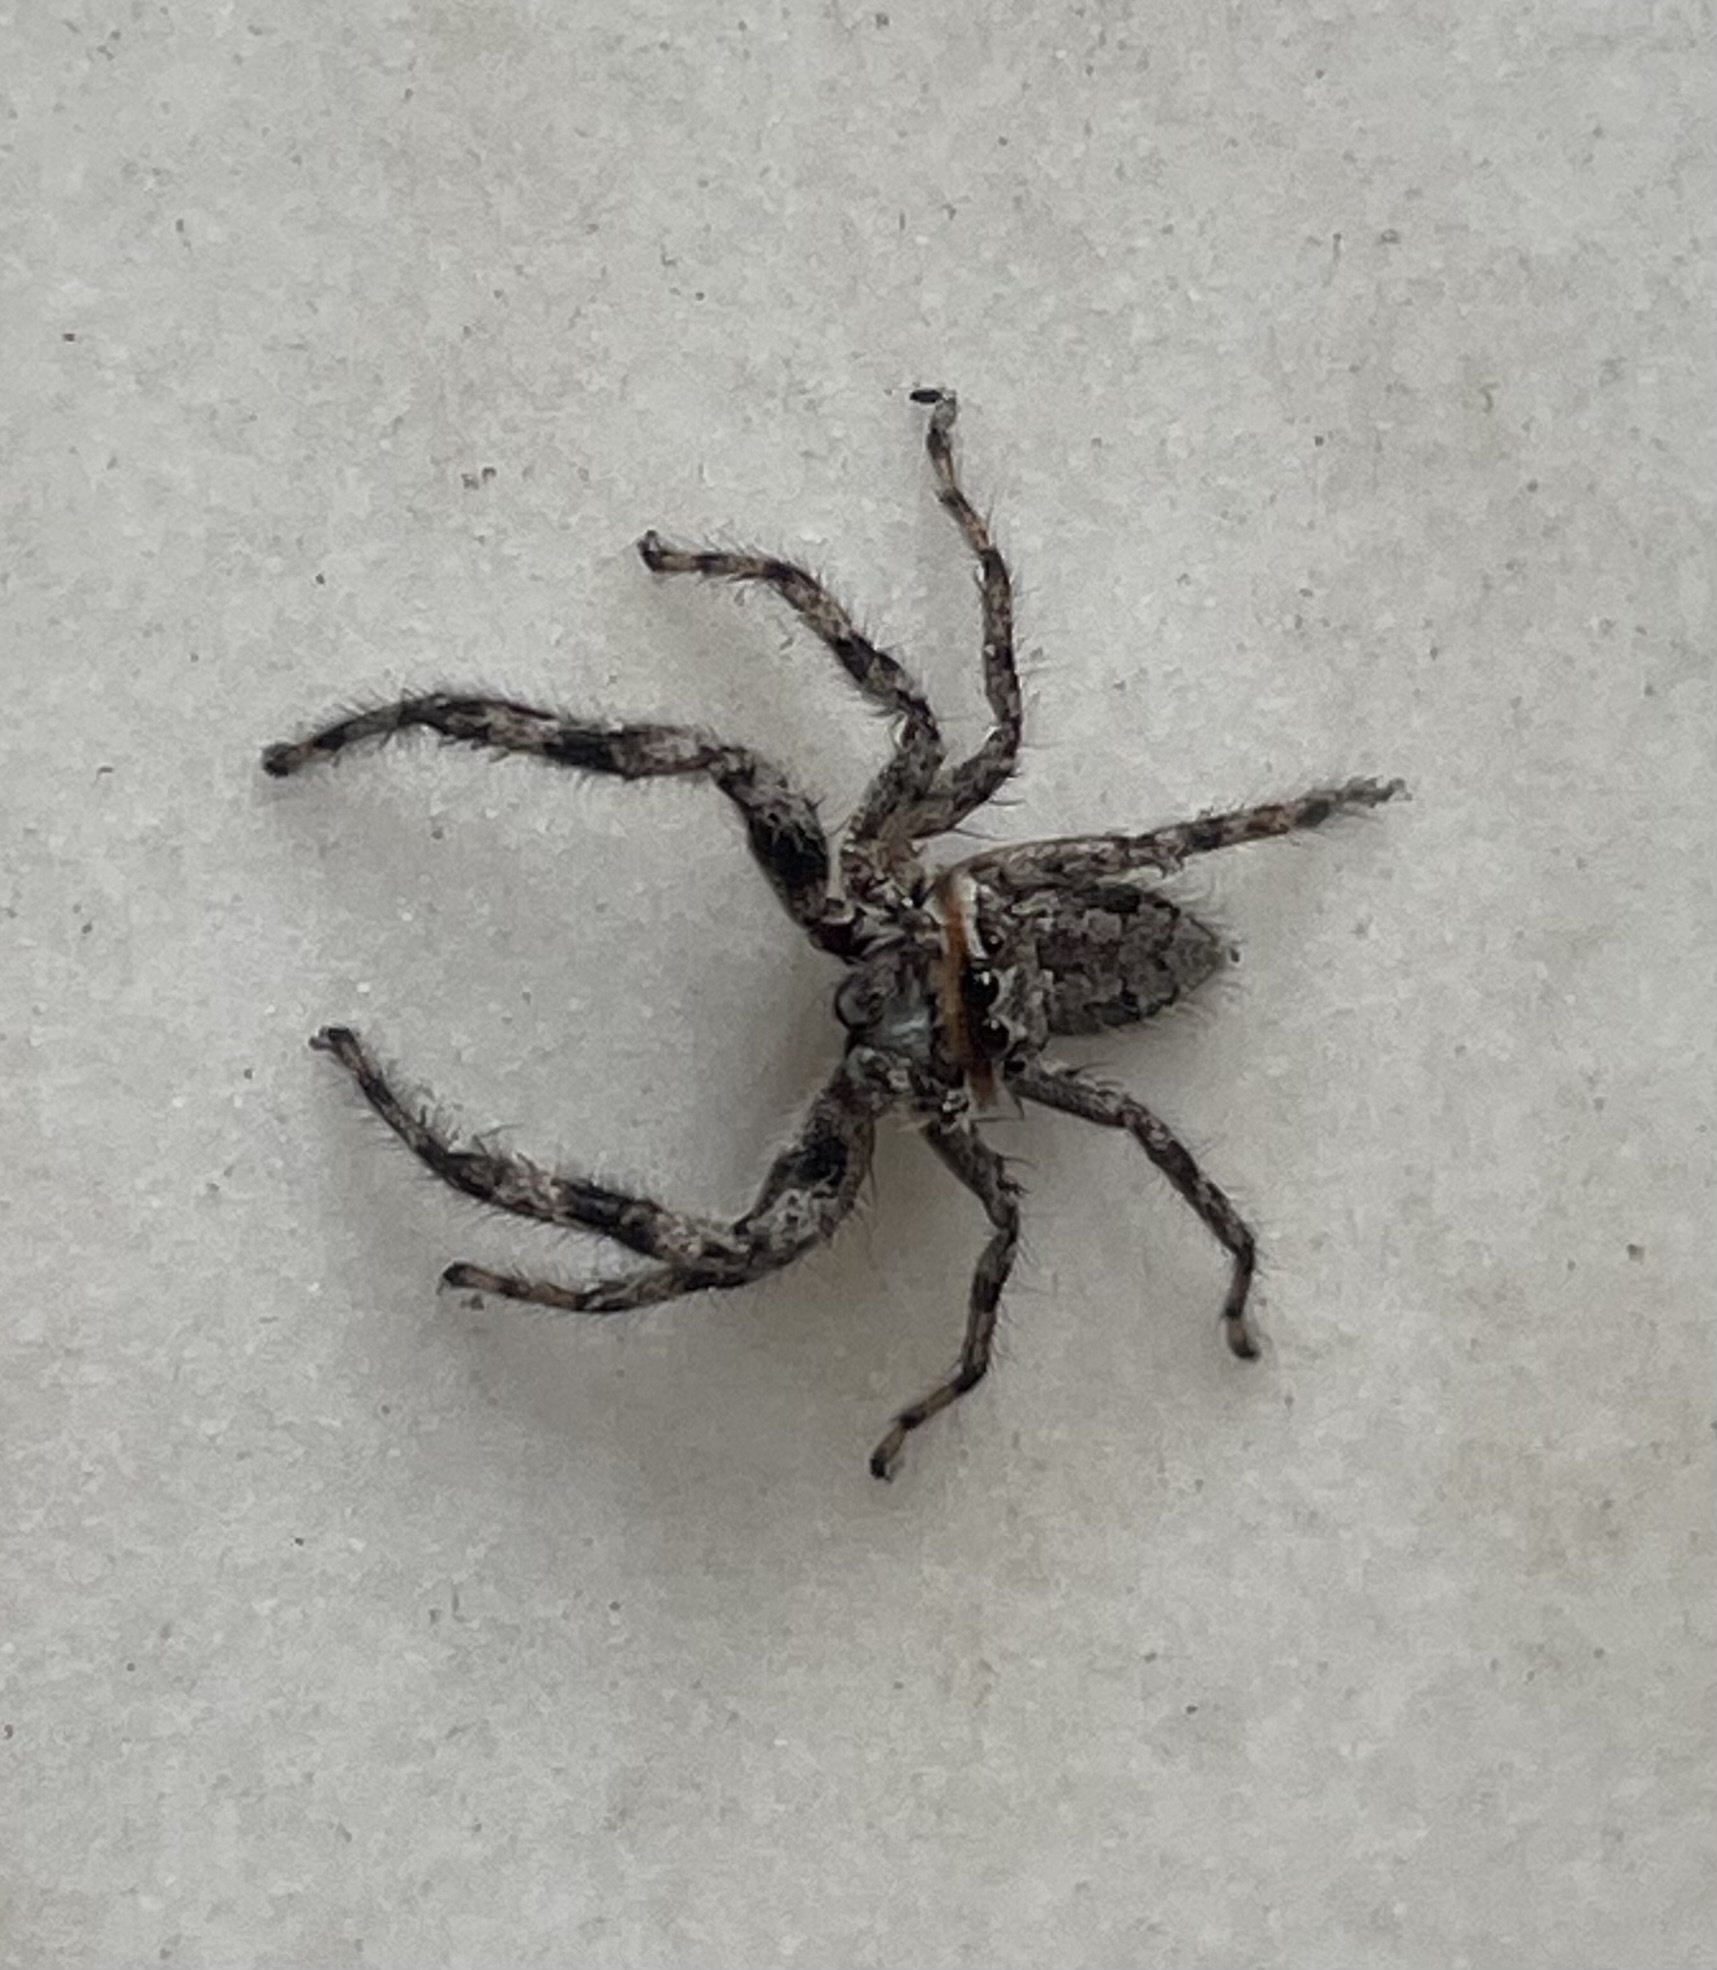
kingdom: Animalia
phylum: Arthropoda
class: Arachnida
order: Araneae
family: Salticidae
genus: Platycryptus
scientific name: Platycryptus undatus
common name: Tan jumping spider
